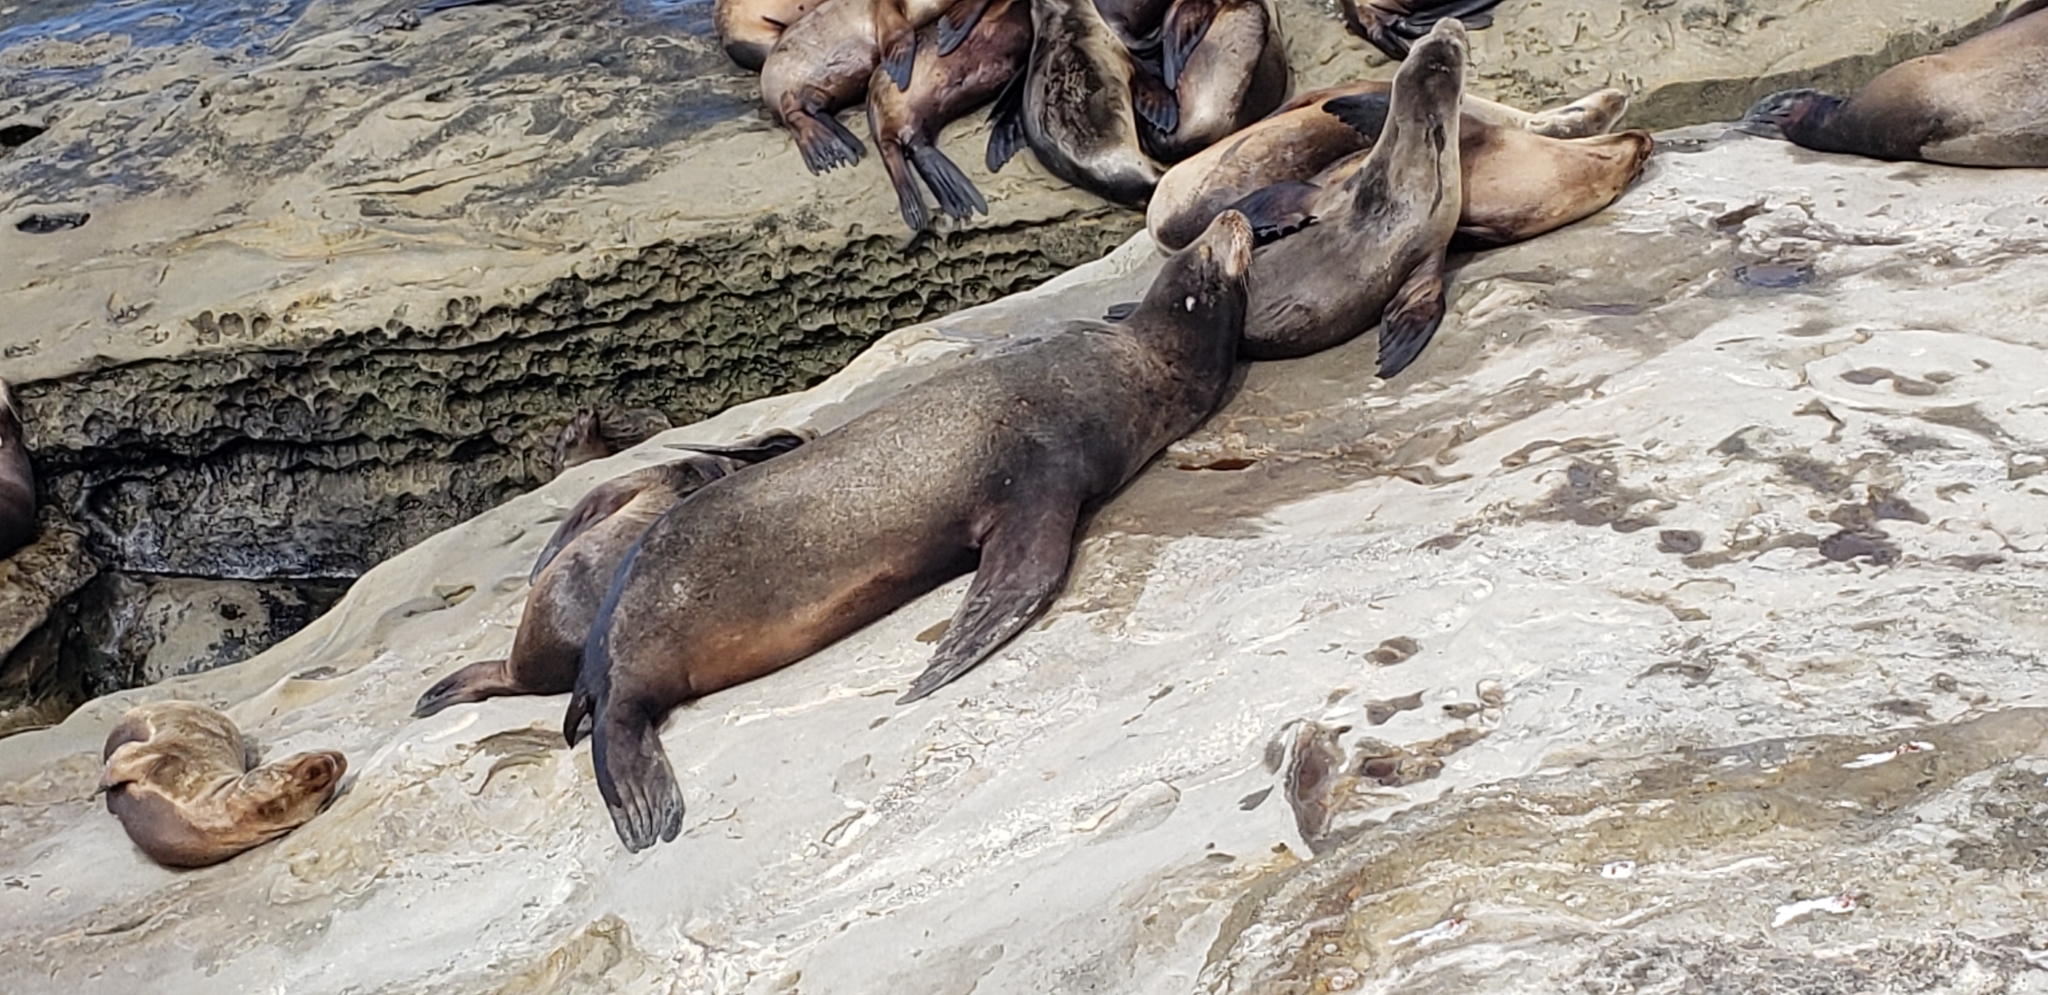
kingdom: Animalia
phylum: Chordata
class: Mammalia
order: Carnivora
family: Otariidae
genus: Zalophus
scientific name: Zalophus californianus
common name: California sea lion
